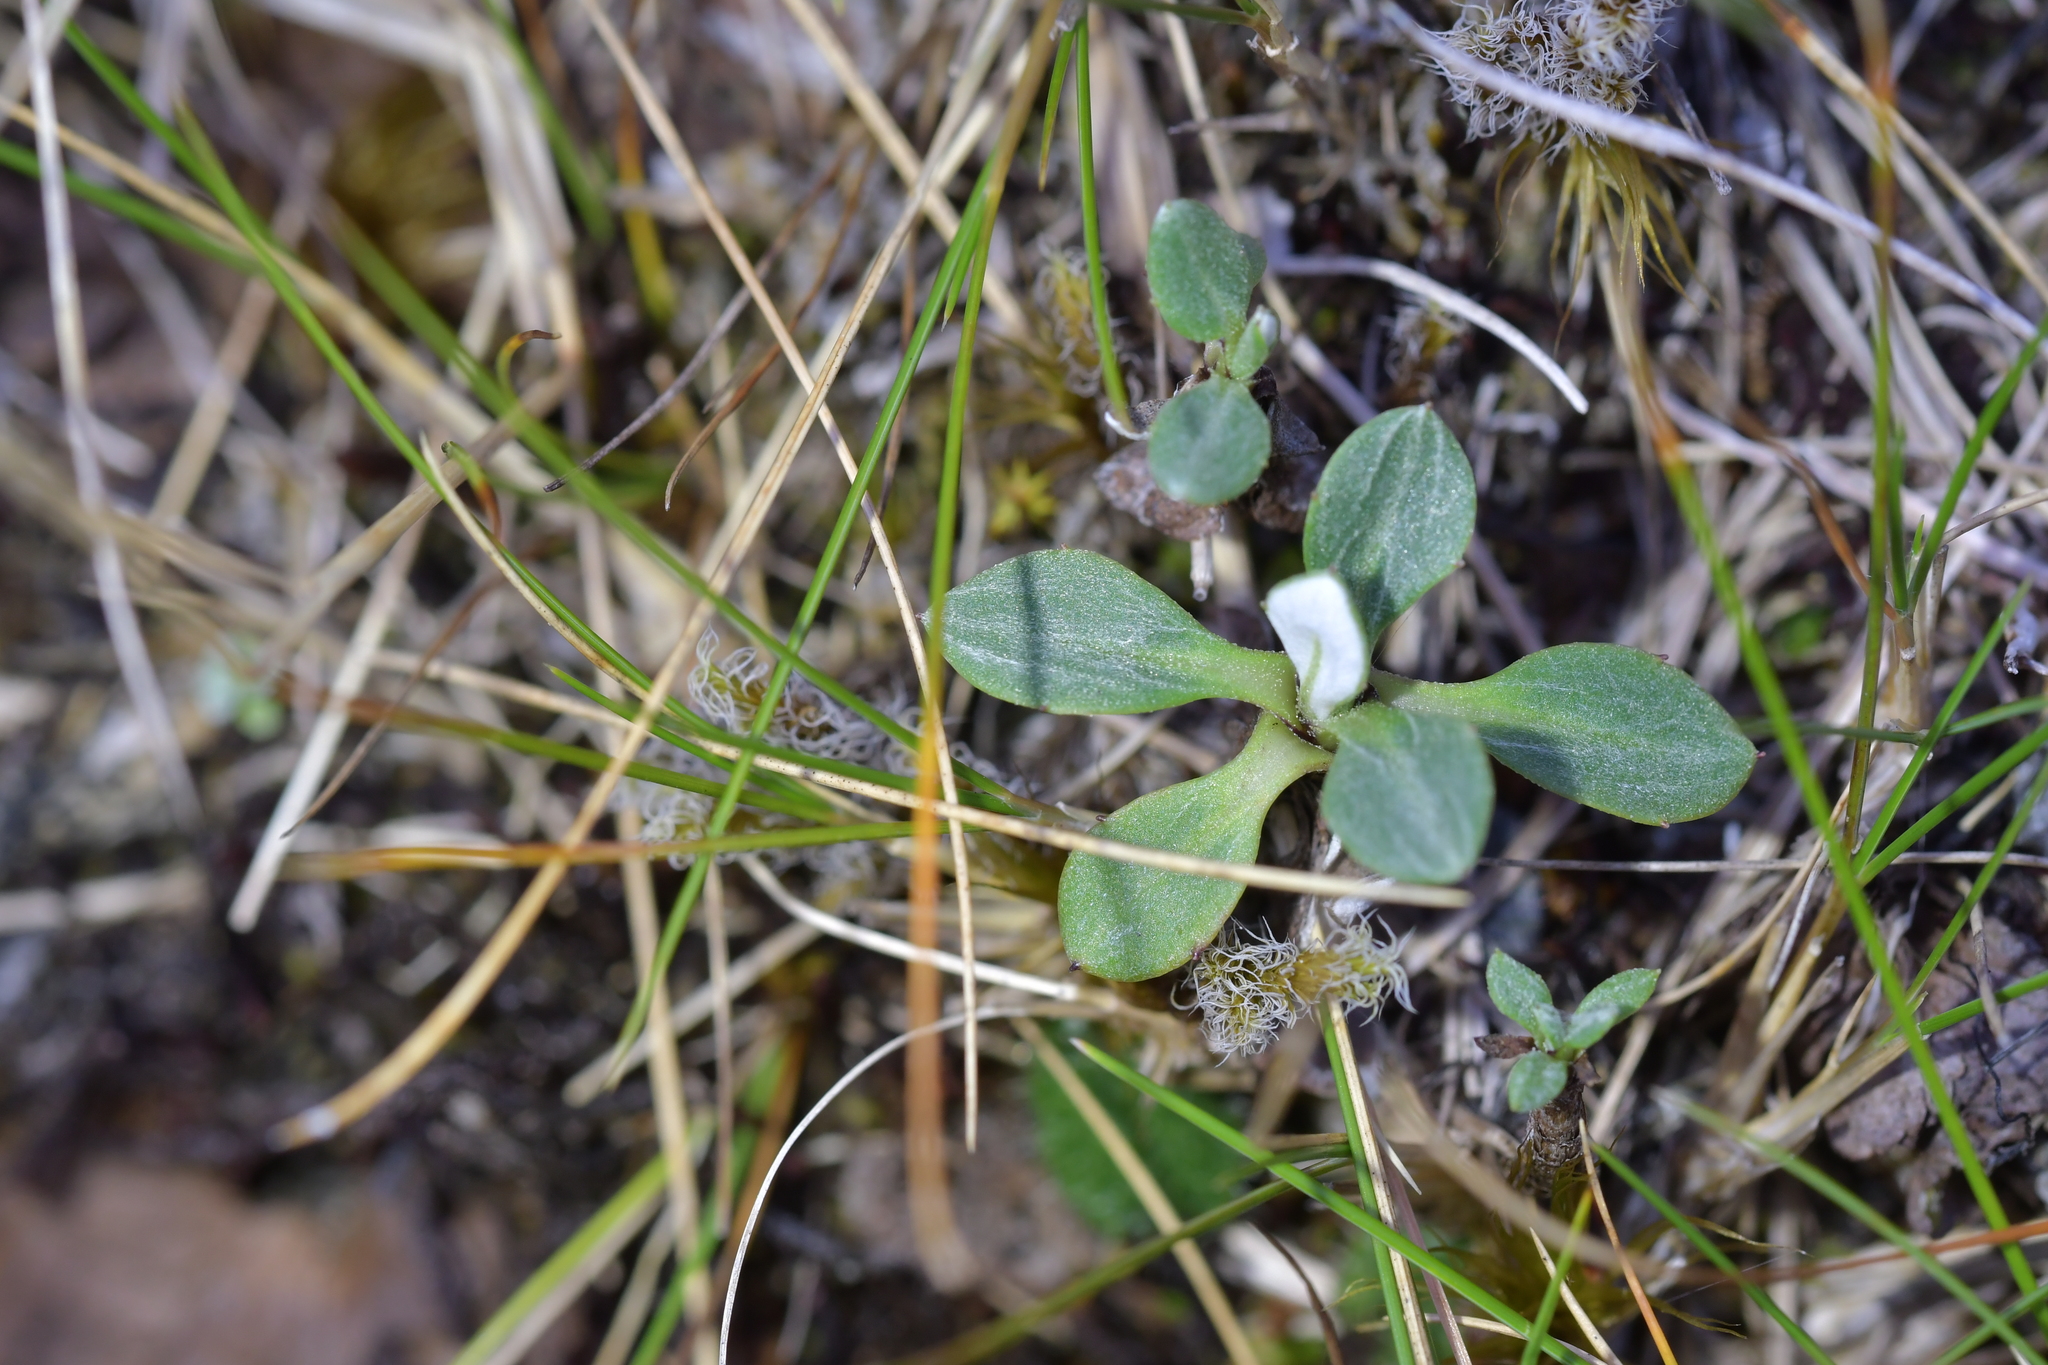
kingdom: Plantae
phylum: Tracheophyta
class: Magnoliopsida
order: Asterales
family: Asteraceae
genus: Celmisia
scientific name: Celmisia discolor
